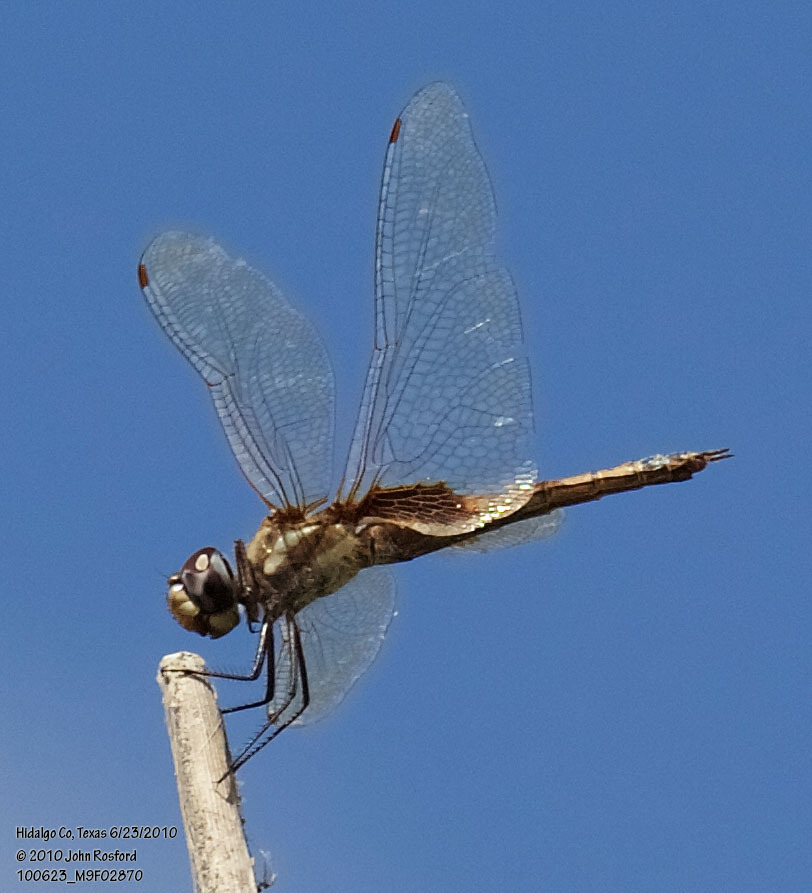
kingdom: Animalia
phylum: Arthropoda
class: Insecta
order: Odonata
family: Libellulidae
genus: Tramea
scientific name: Tramea darwini
